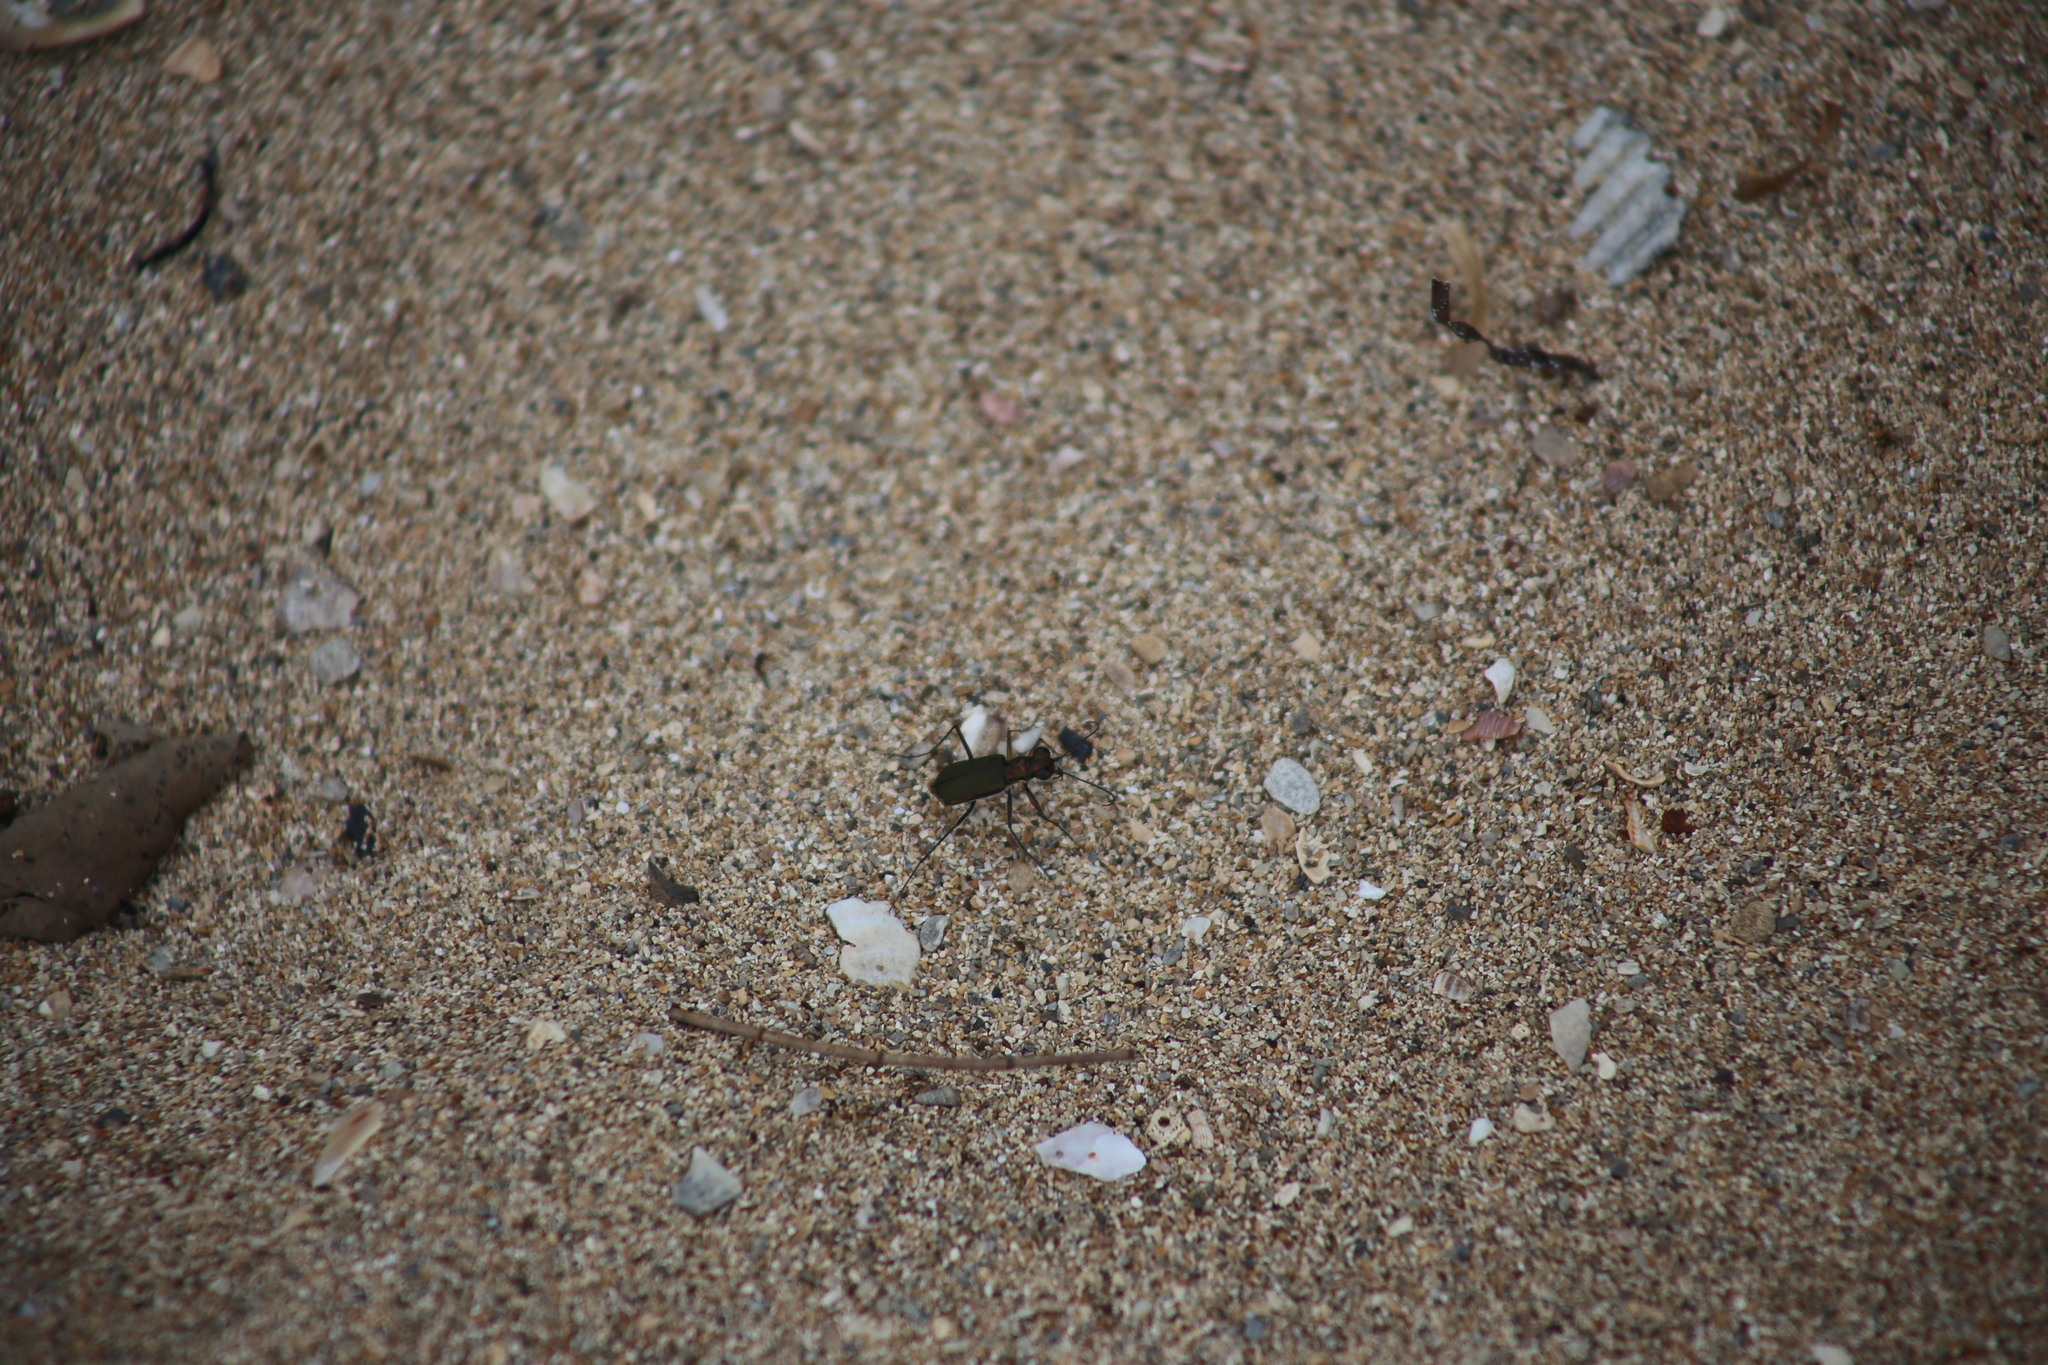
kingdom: Animalia
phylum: Arthropoda
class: Insecta
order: Coleoptera
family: Carabidae
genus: Myriochila
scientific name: Myriochila semicincta
